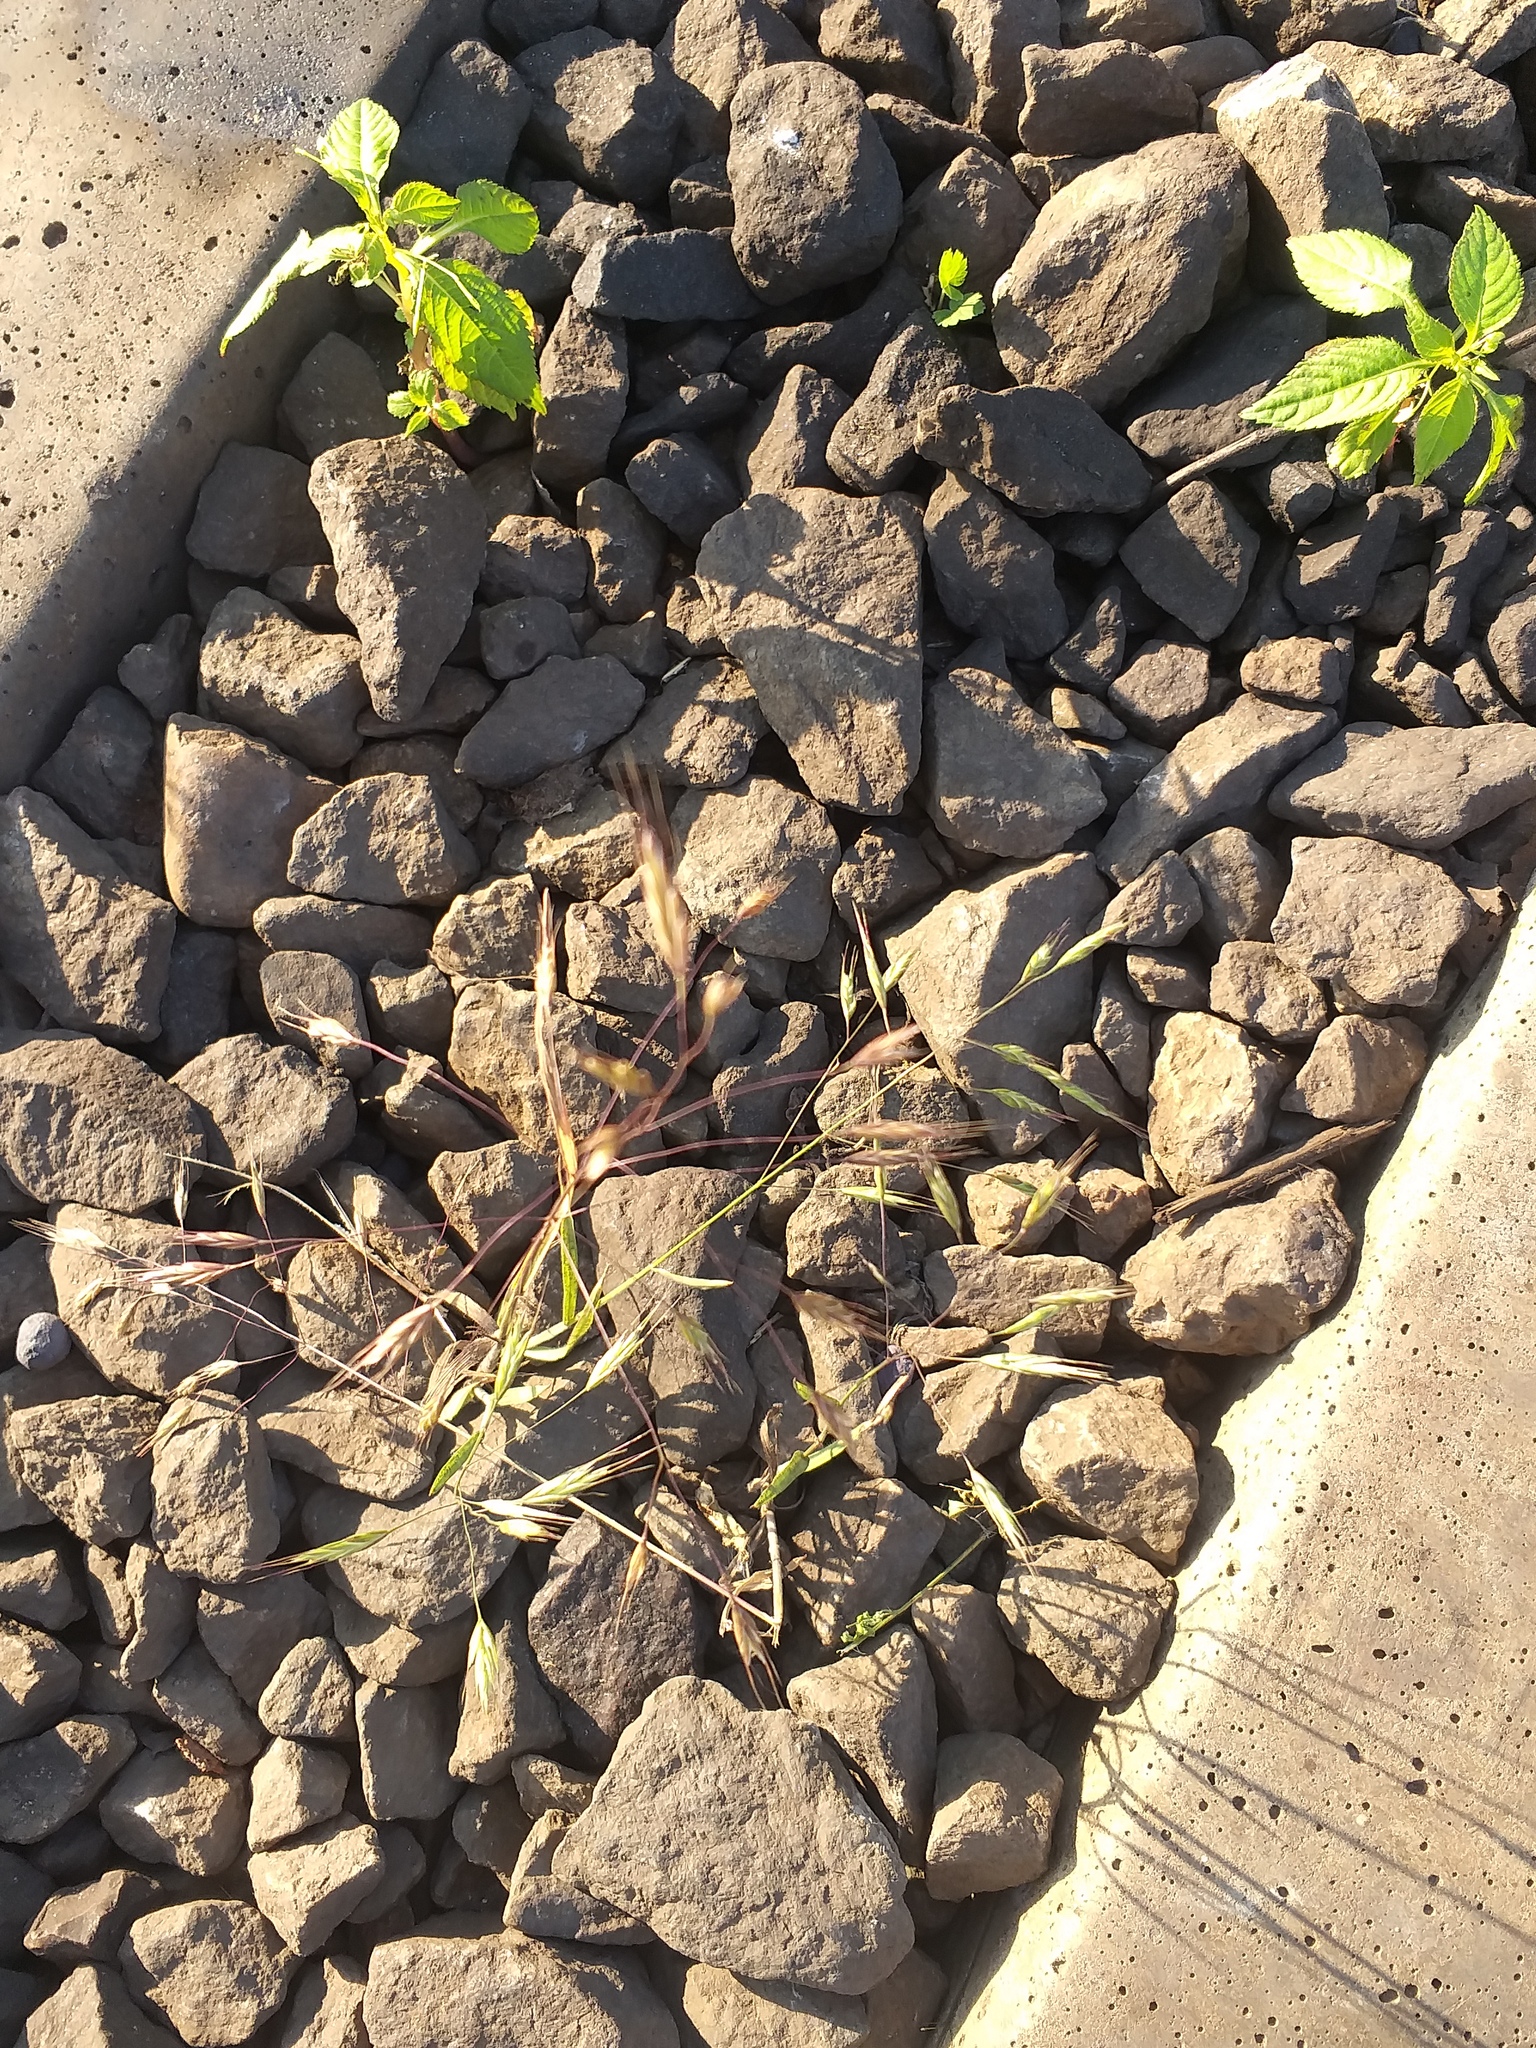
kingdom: Plantae
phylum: Tracheophyta
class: Liliopsida
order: Poales
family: Poaceae
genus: Bromus
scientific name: Bromus arvensis
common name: Field brome
